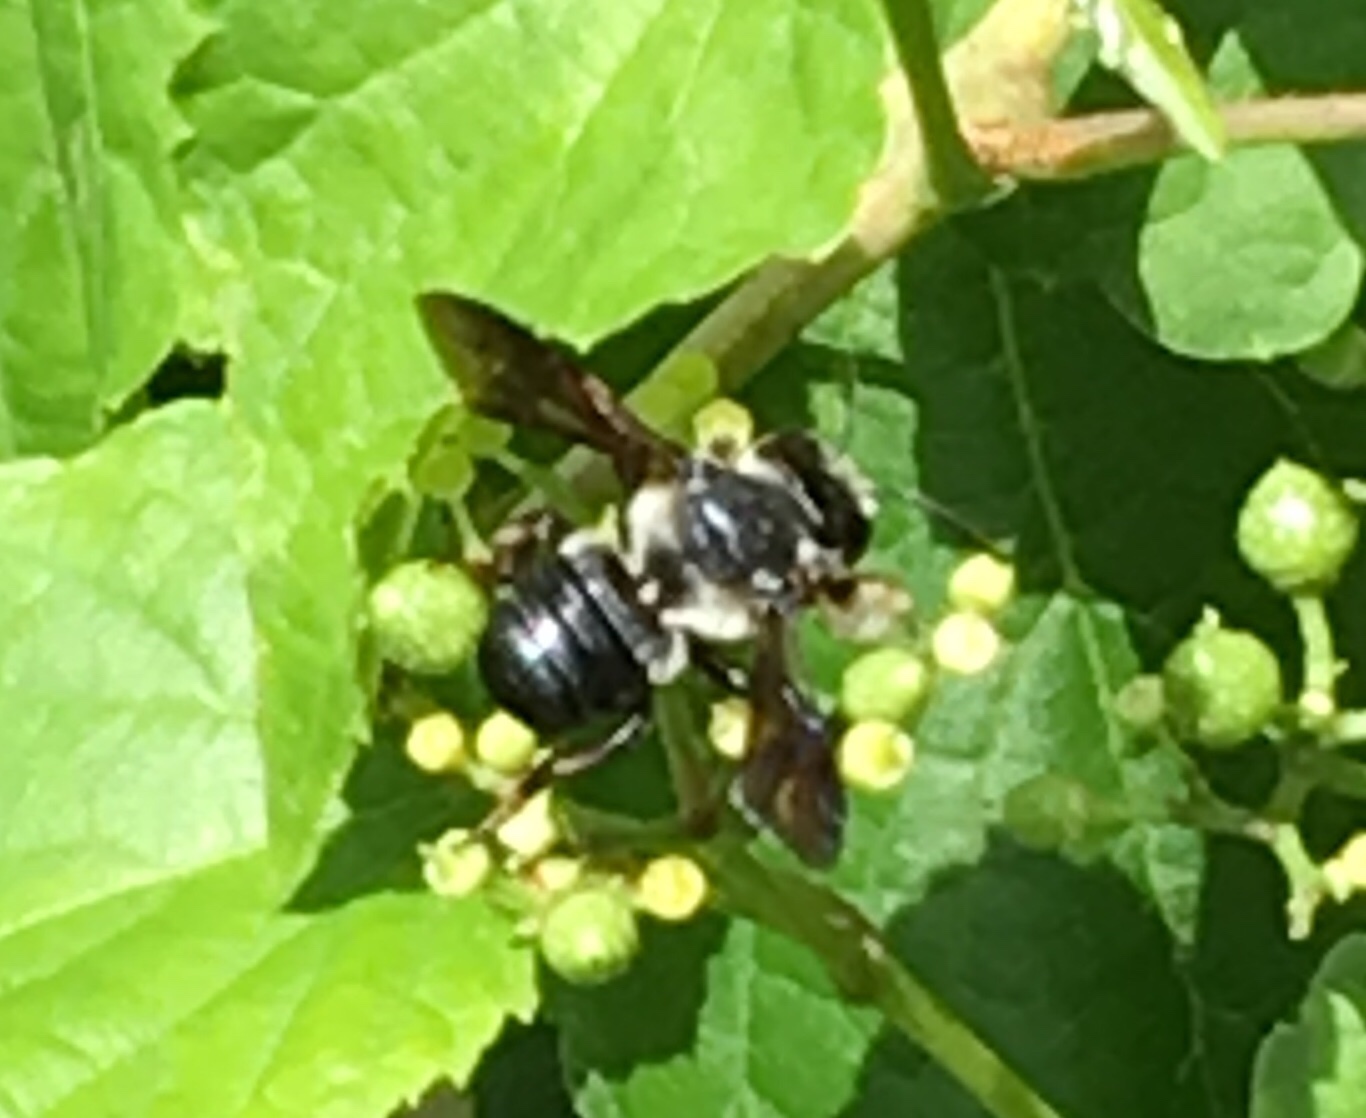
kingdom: Animalia
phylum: Arthropoda
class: Insecta
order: Hymenoptera
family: Megachilidae
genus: Megachile
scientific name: Megachile xylocopoides
